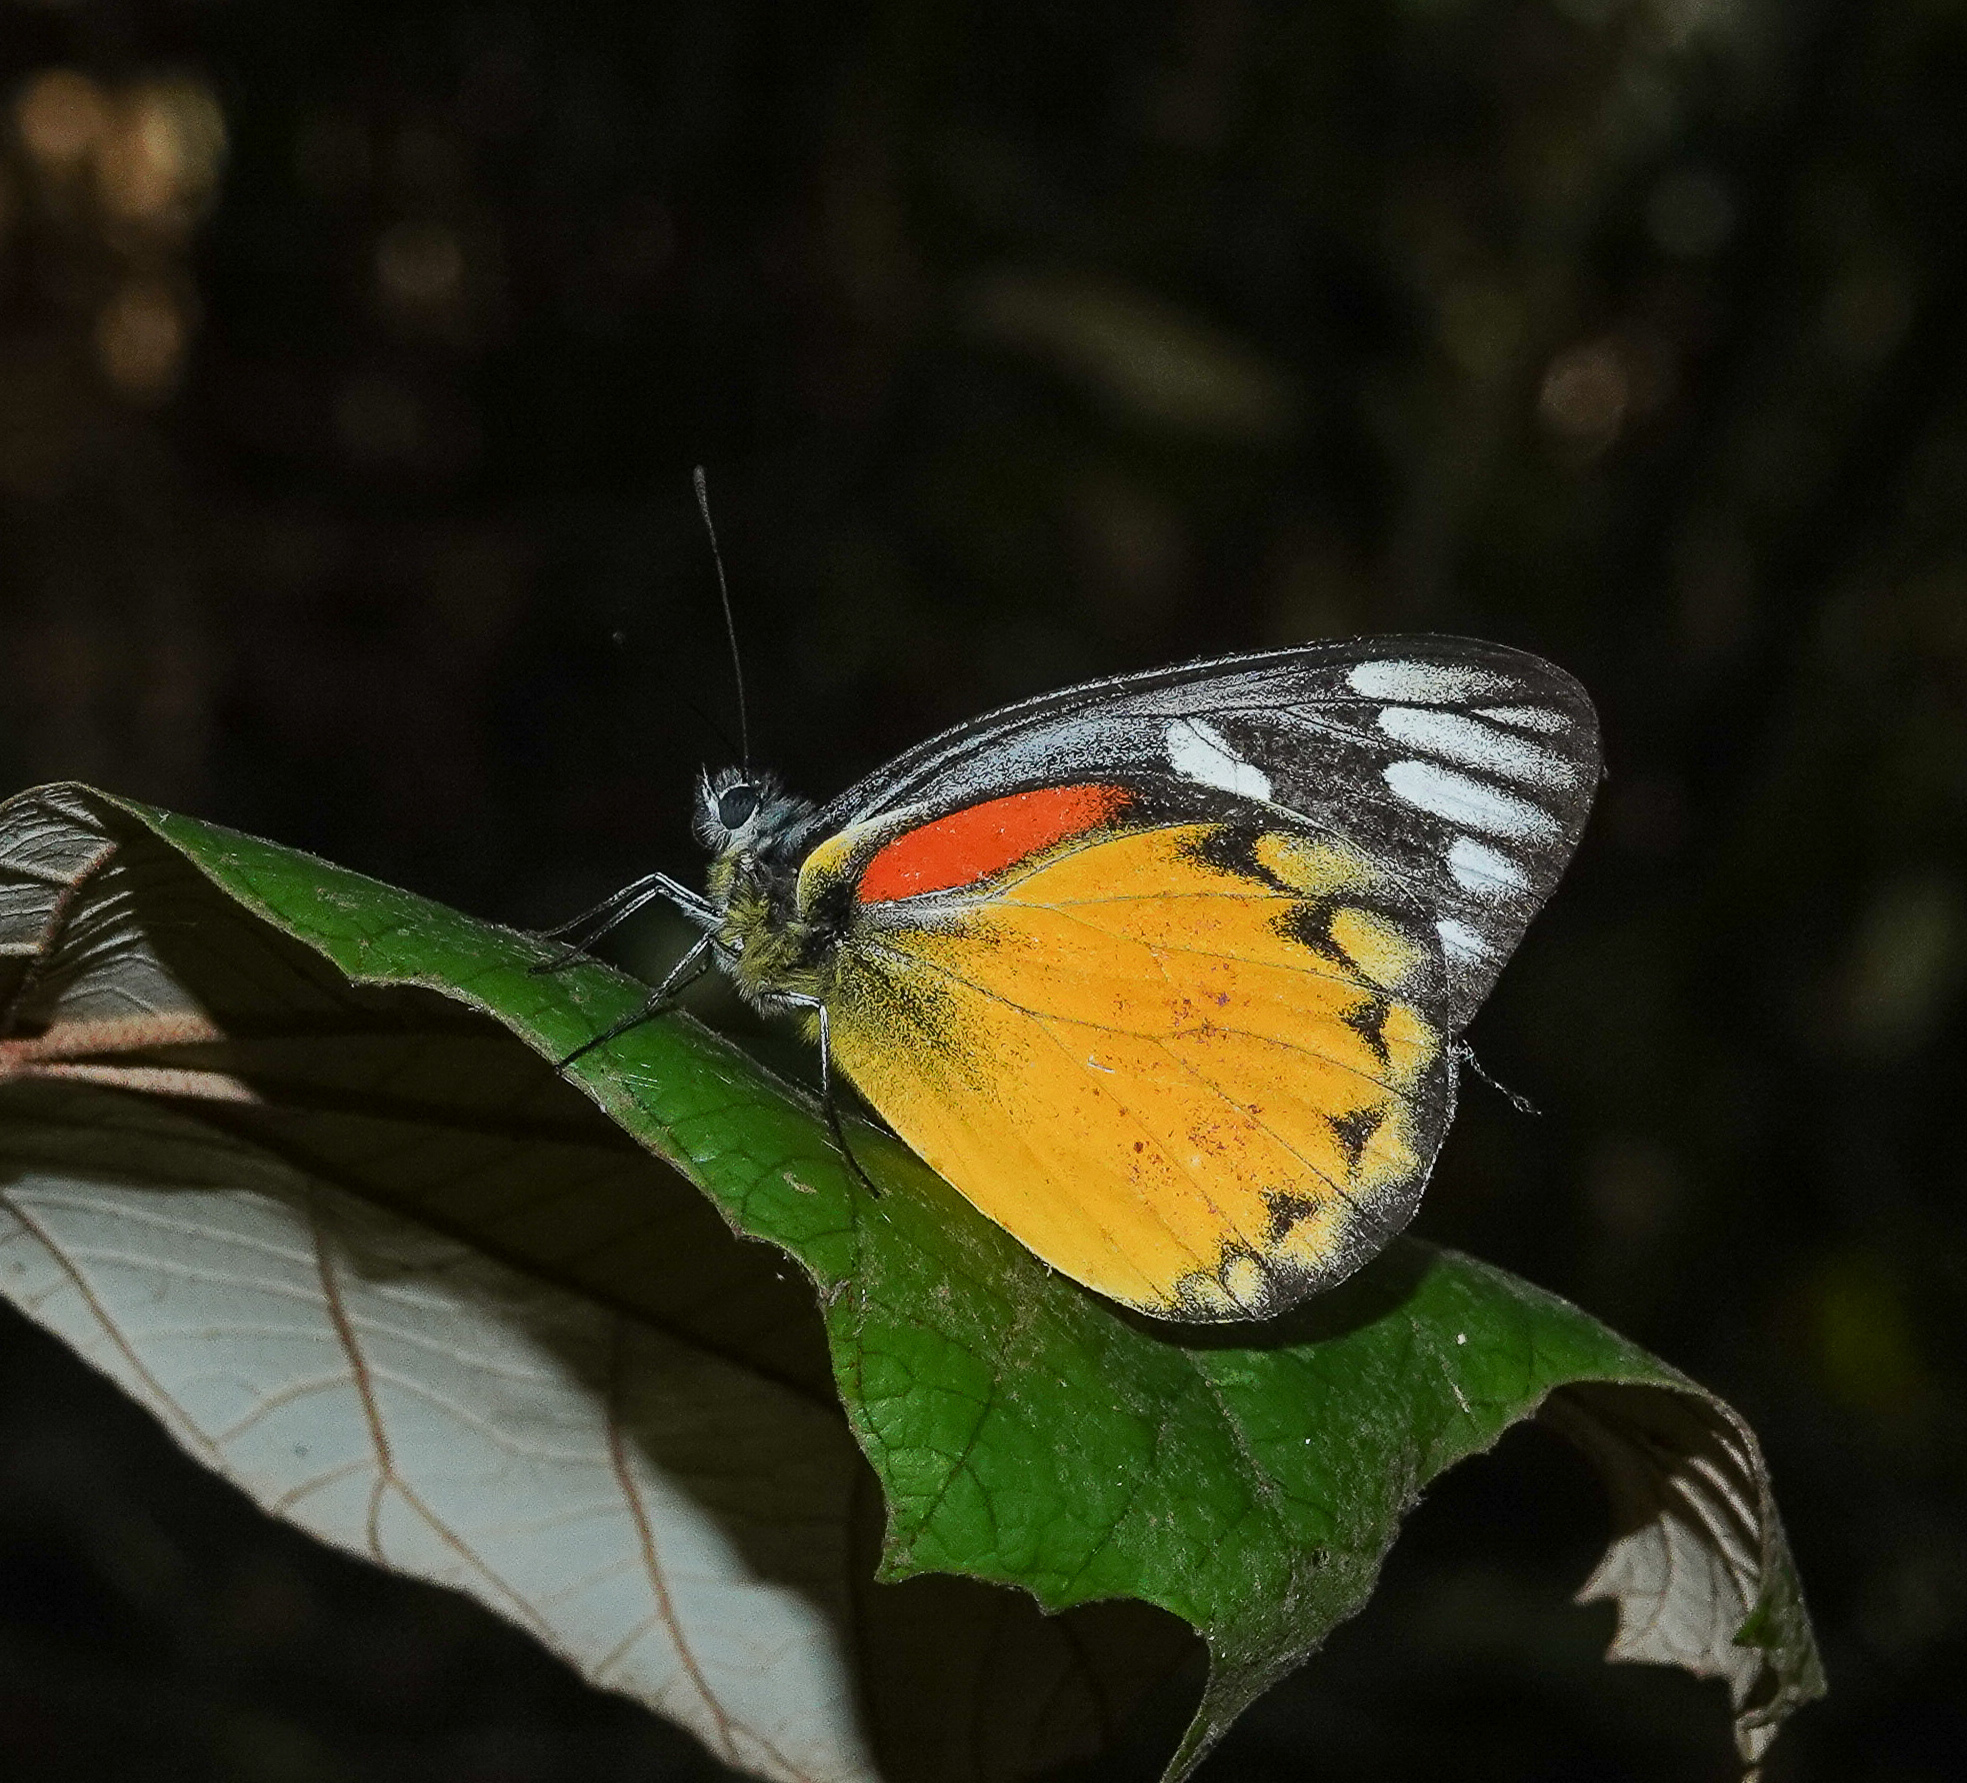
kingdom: Animalia
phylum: Arthropoda
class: Insecta
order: Lepidoptera
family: Pieridae
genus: Delias
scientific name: Delias descombesi
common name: Red-spot jezebel
